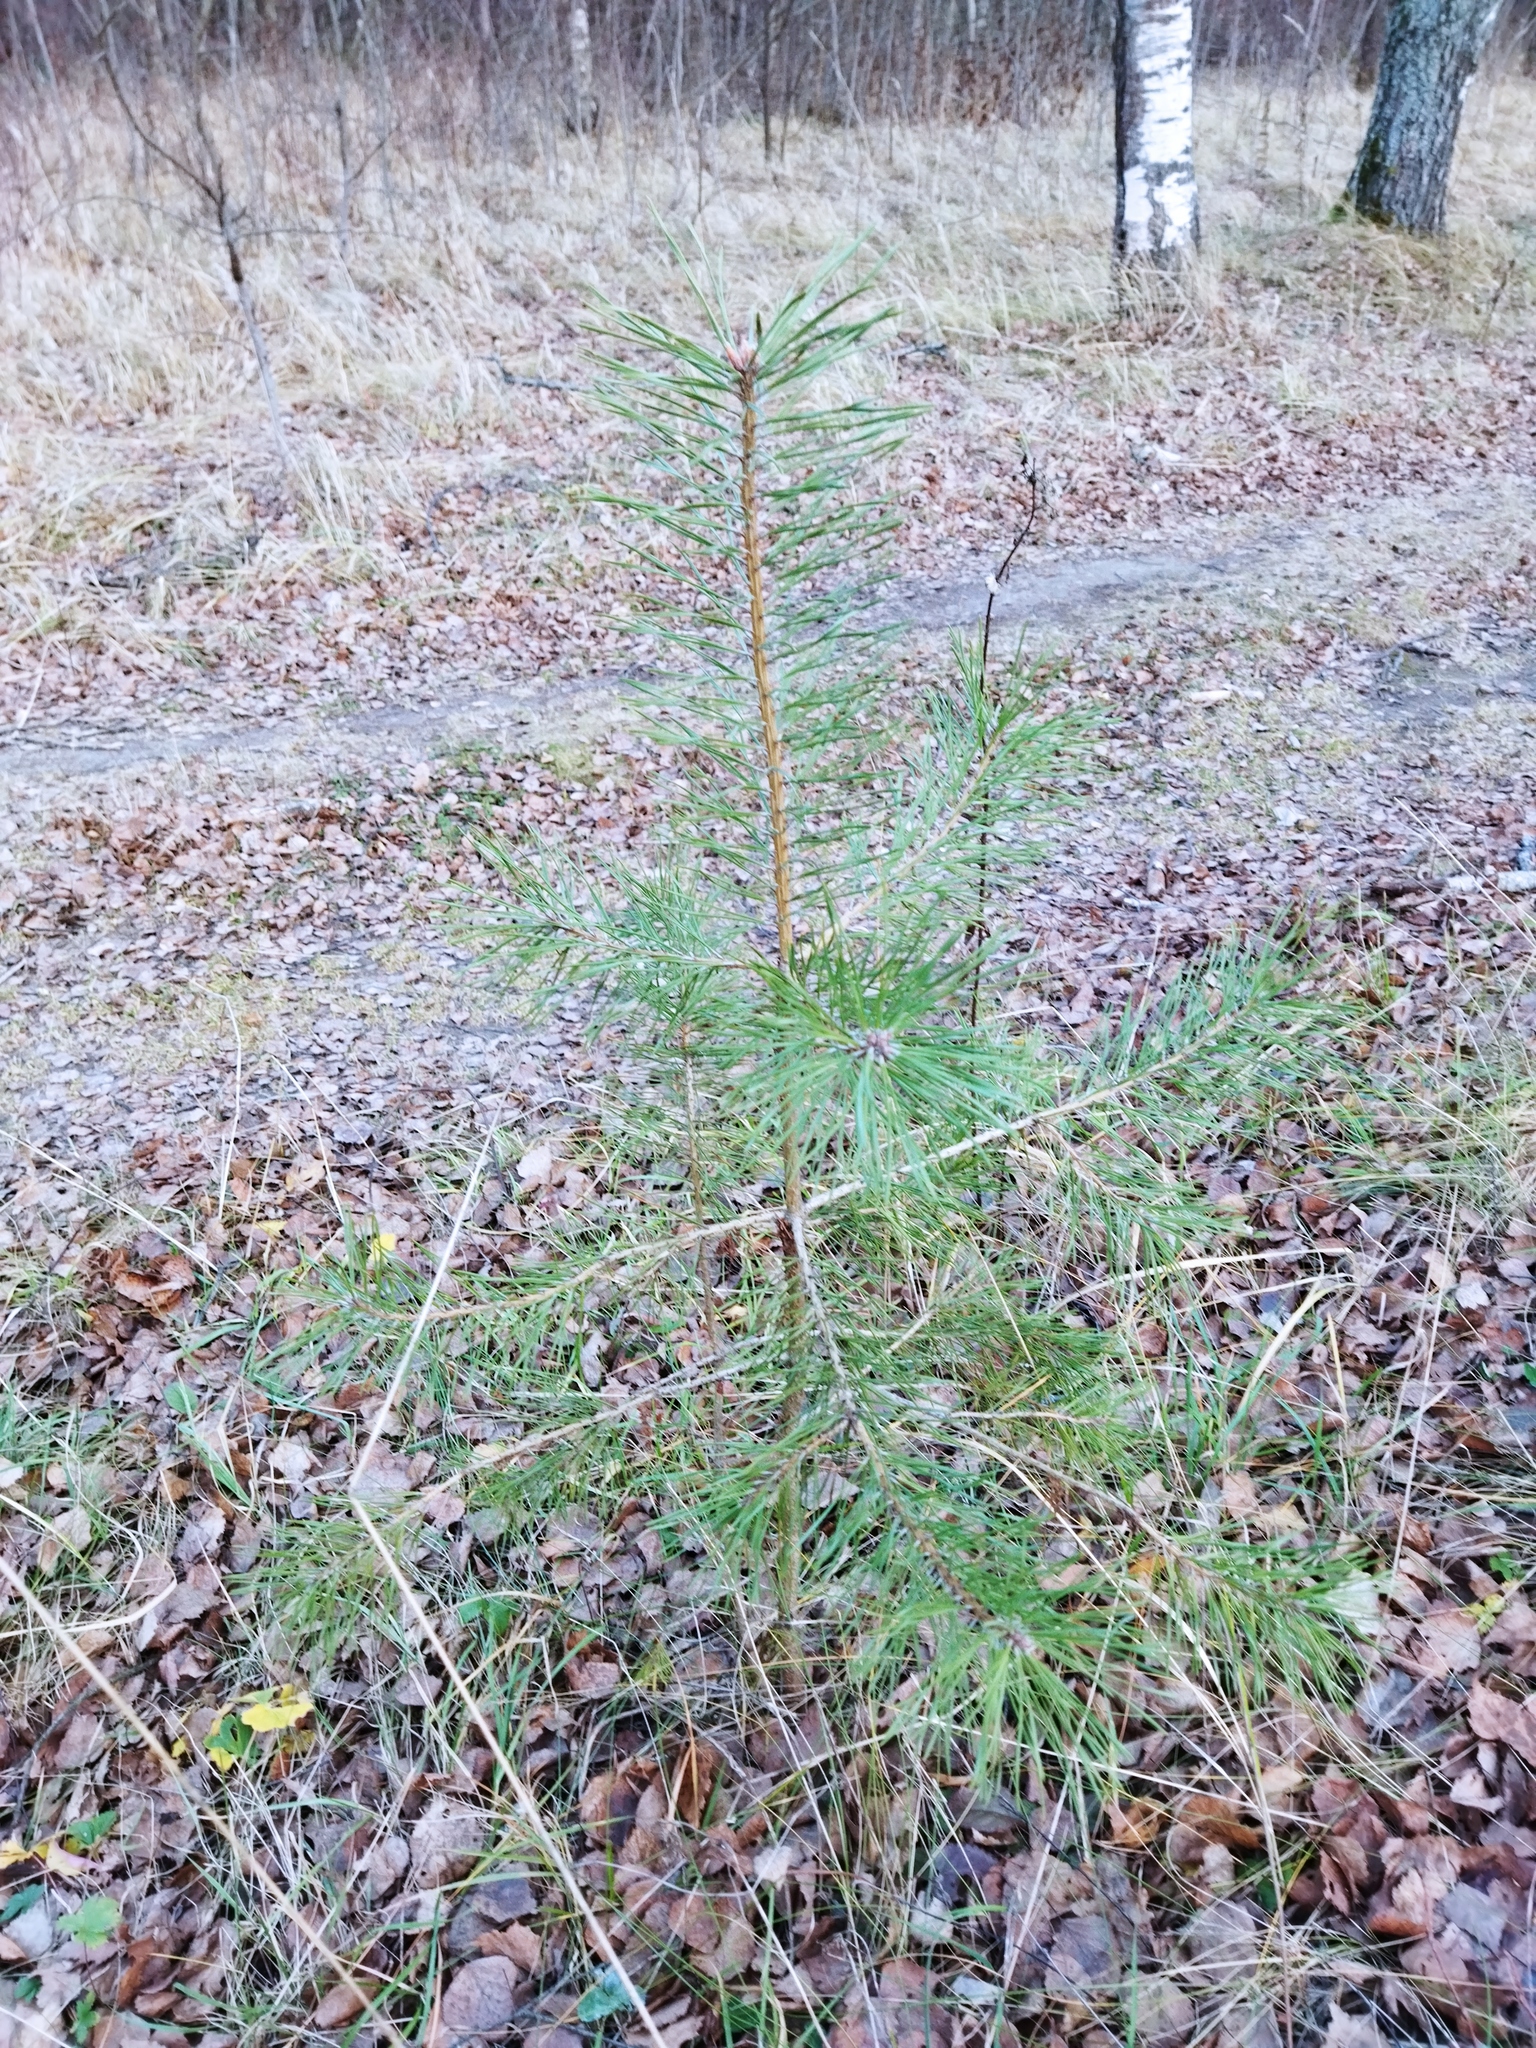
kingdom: Plantae
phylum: Tracheophyta
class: Pinopsida
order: Pinales
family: Pinaceae
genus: Pinus
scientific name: Pinus sylvestris
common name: Scots pine
